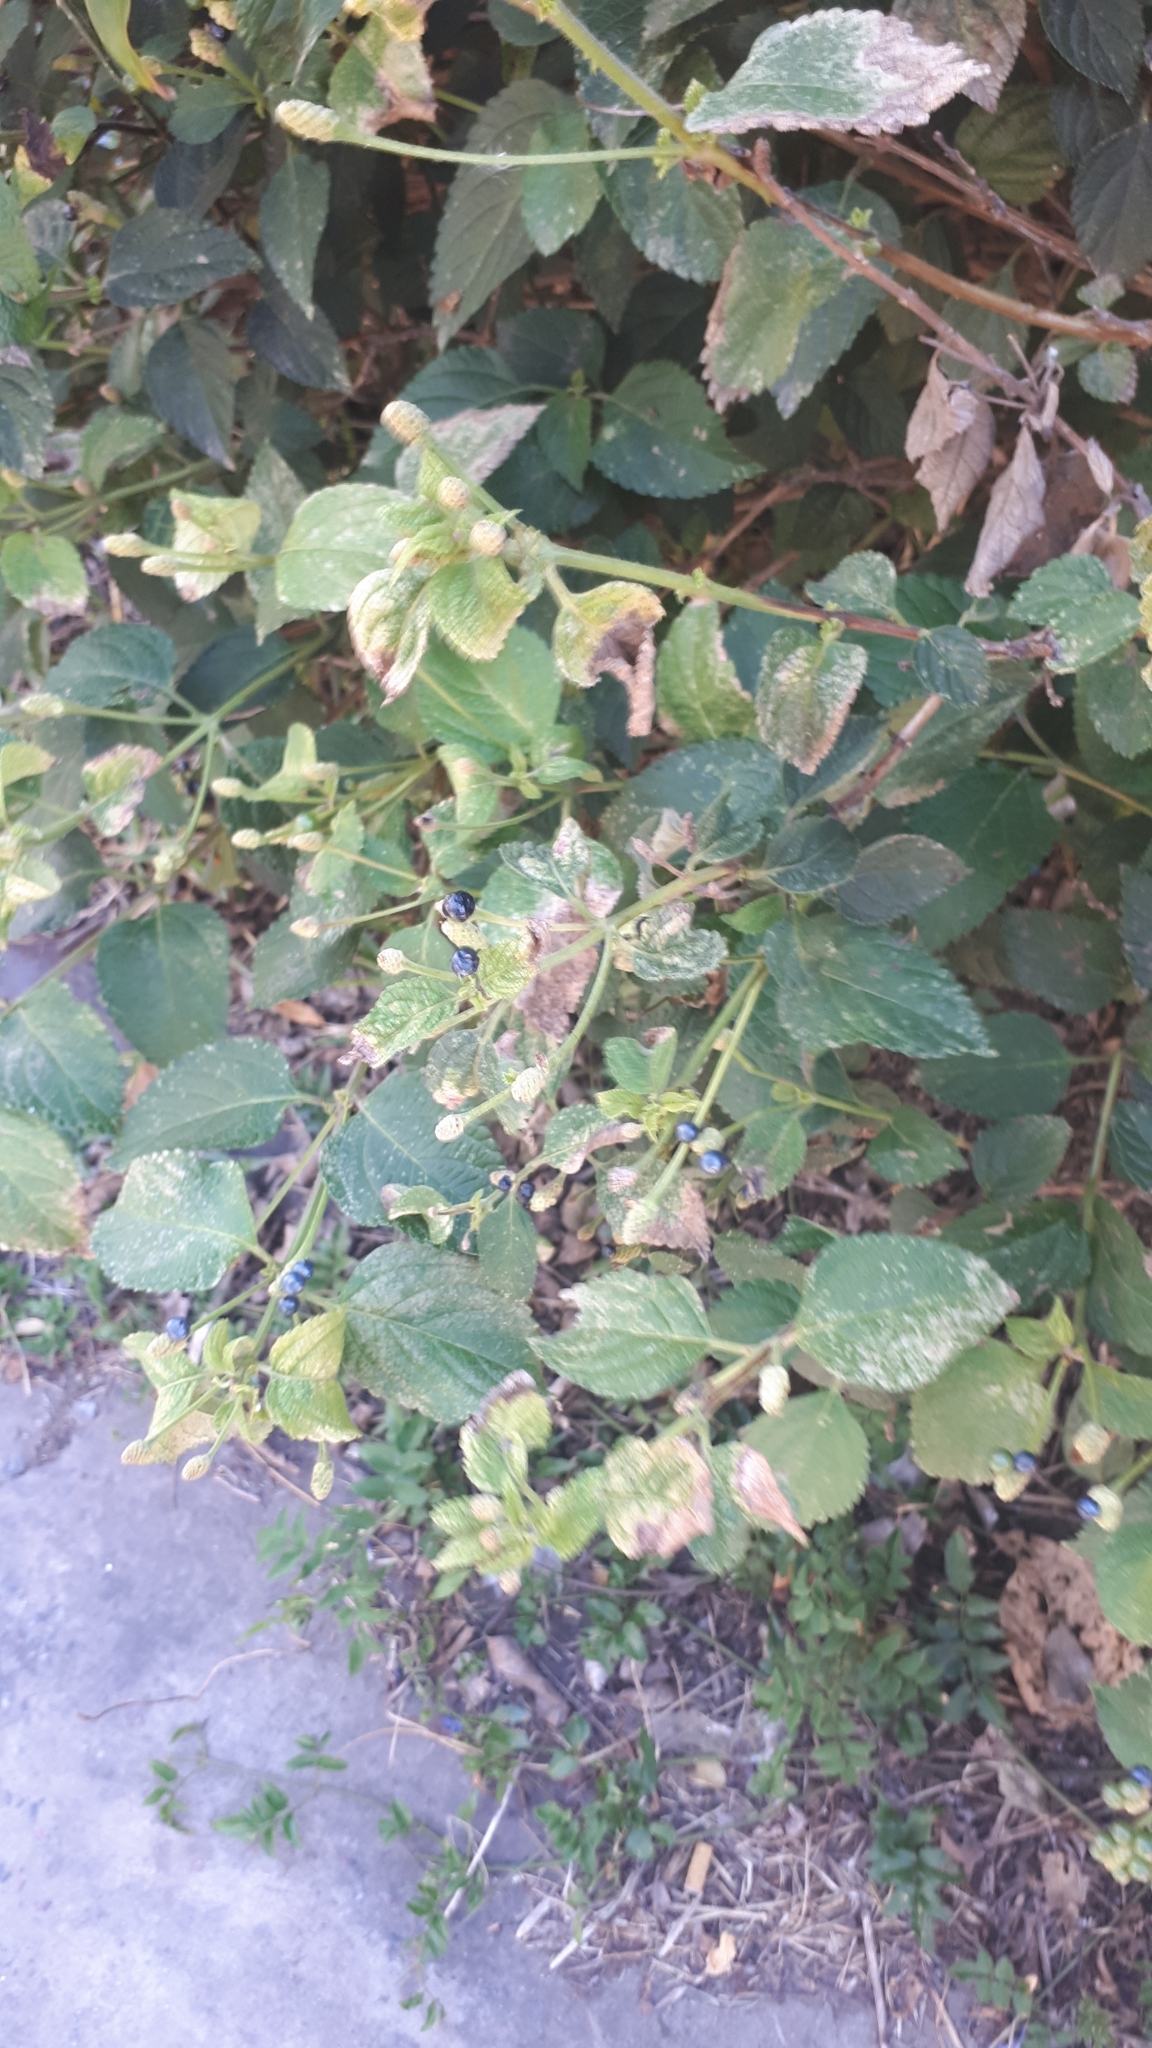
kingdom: Plantae
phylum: Tracheophyta
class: Magnoliopsida
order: Lamiales
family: Verbenaceae
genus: Lantana
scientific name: Lantana camara
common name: Lantana
